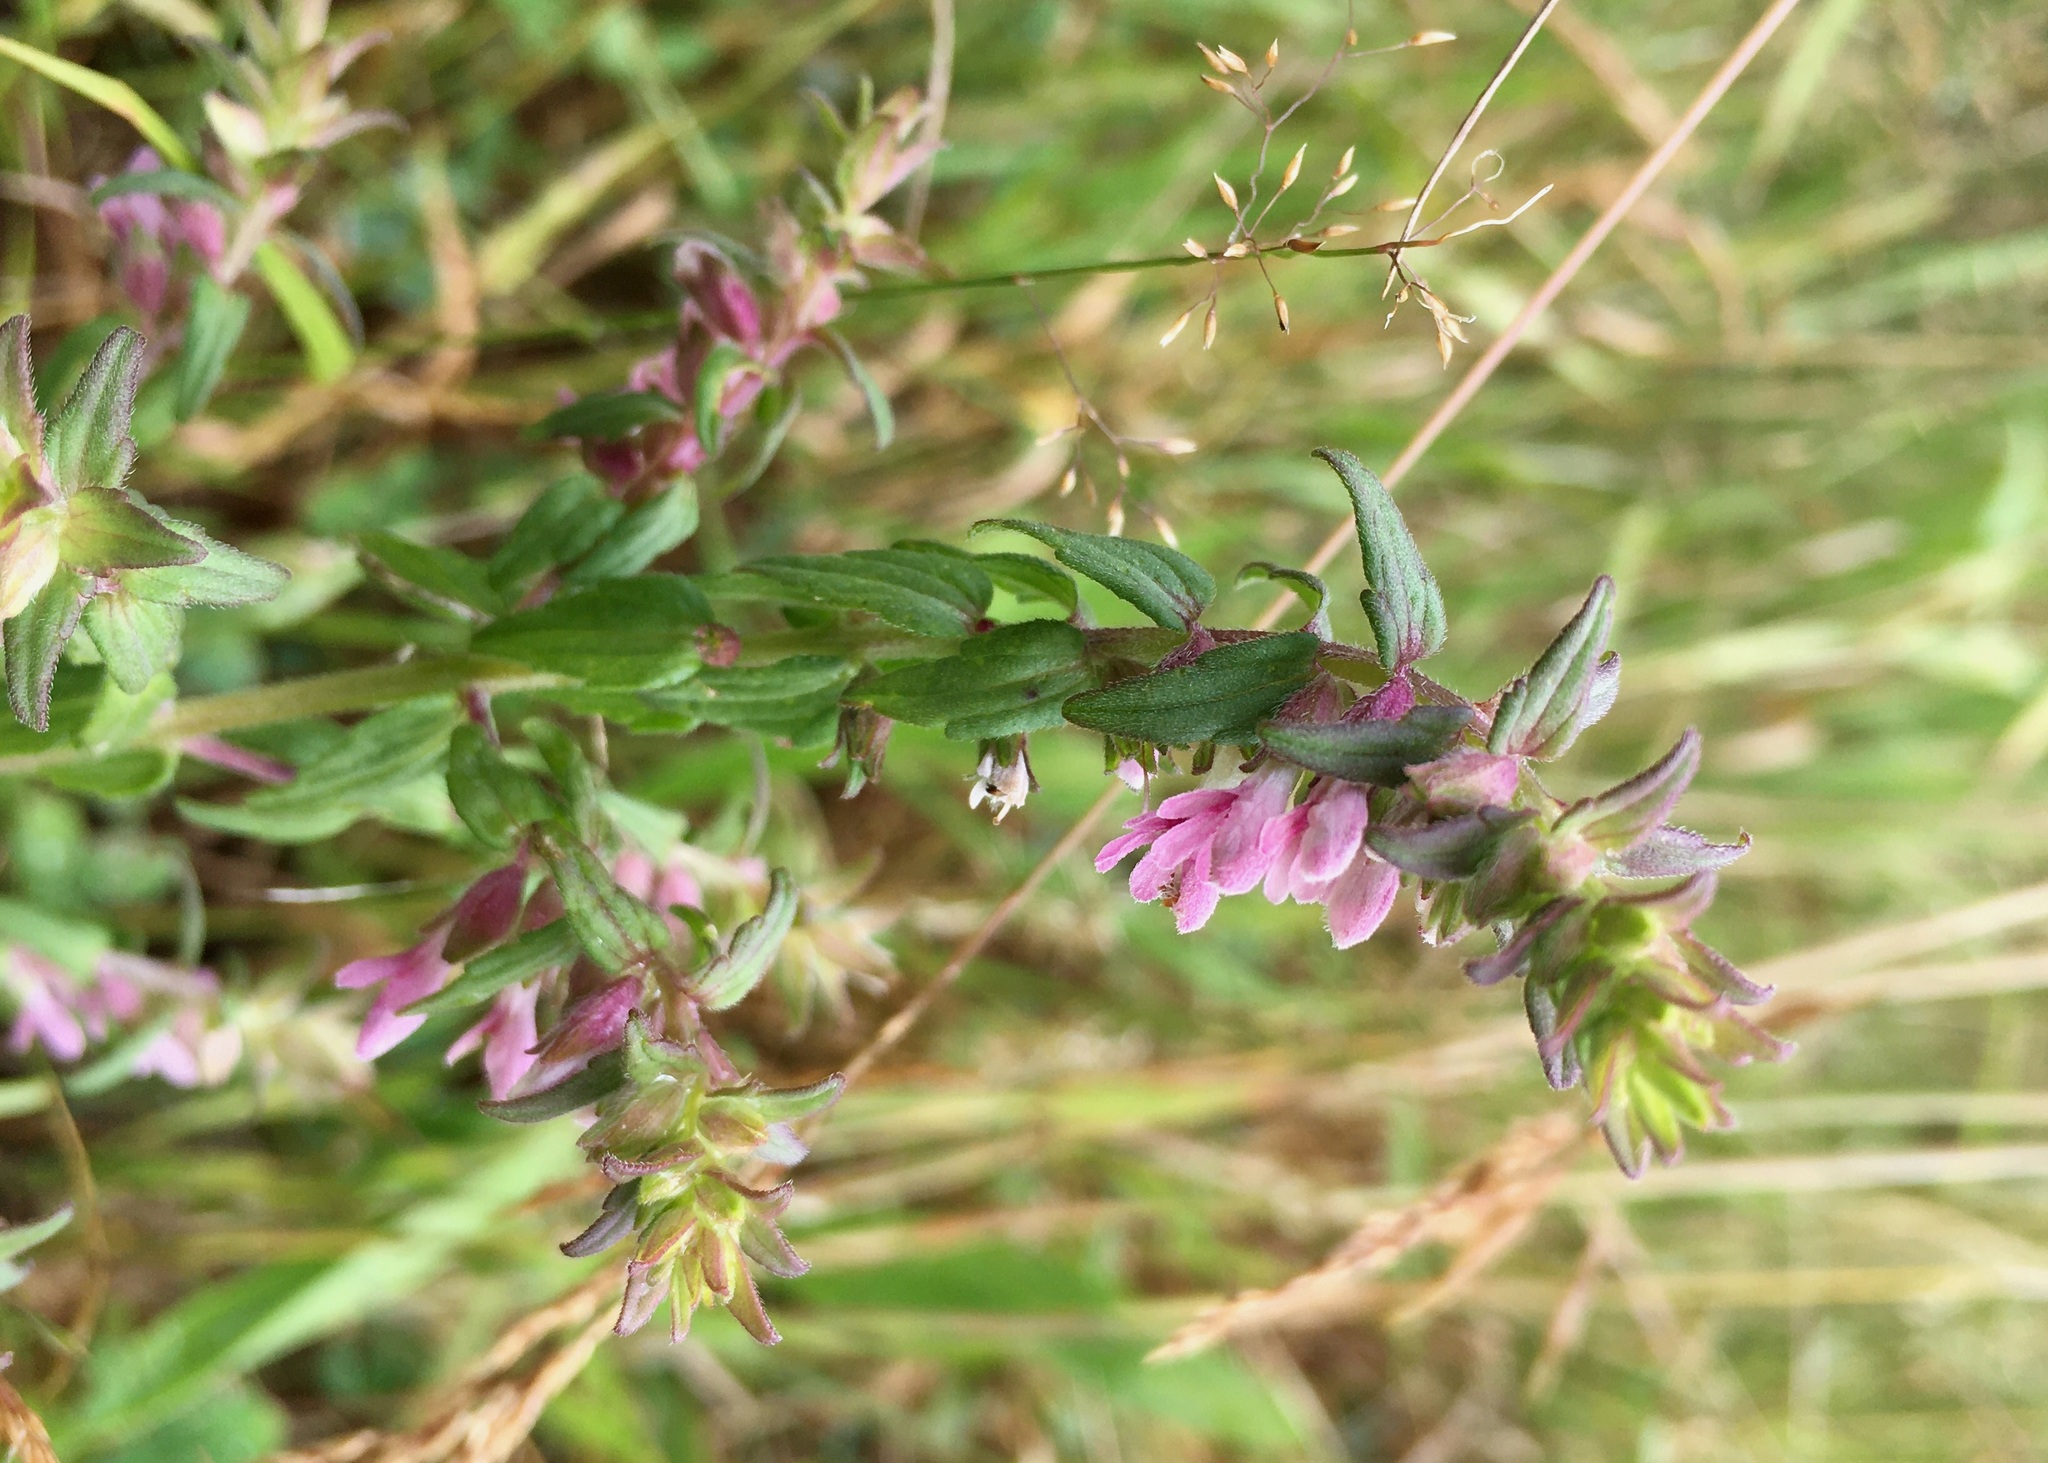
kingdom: Plantae
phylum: Tracheophyta
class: Magnoliopsida
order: Lamiales
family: Orobanchaceae
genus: Odontites
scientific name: Odontites vernus
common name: Red bartsia
